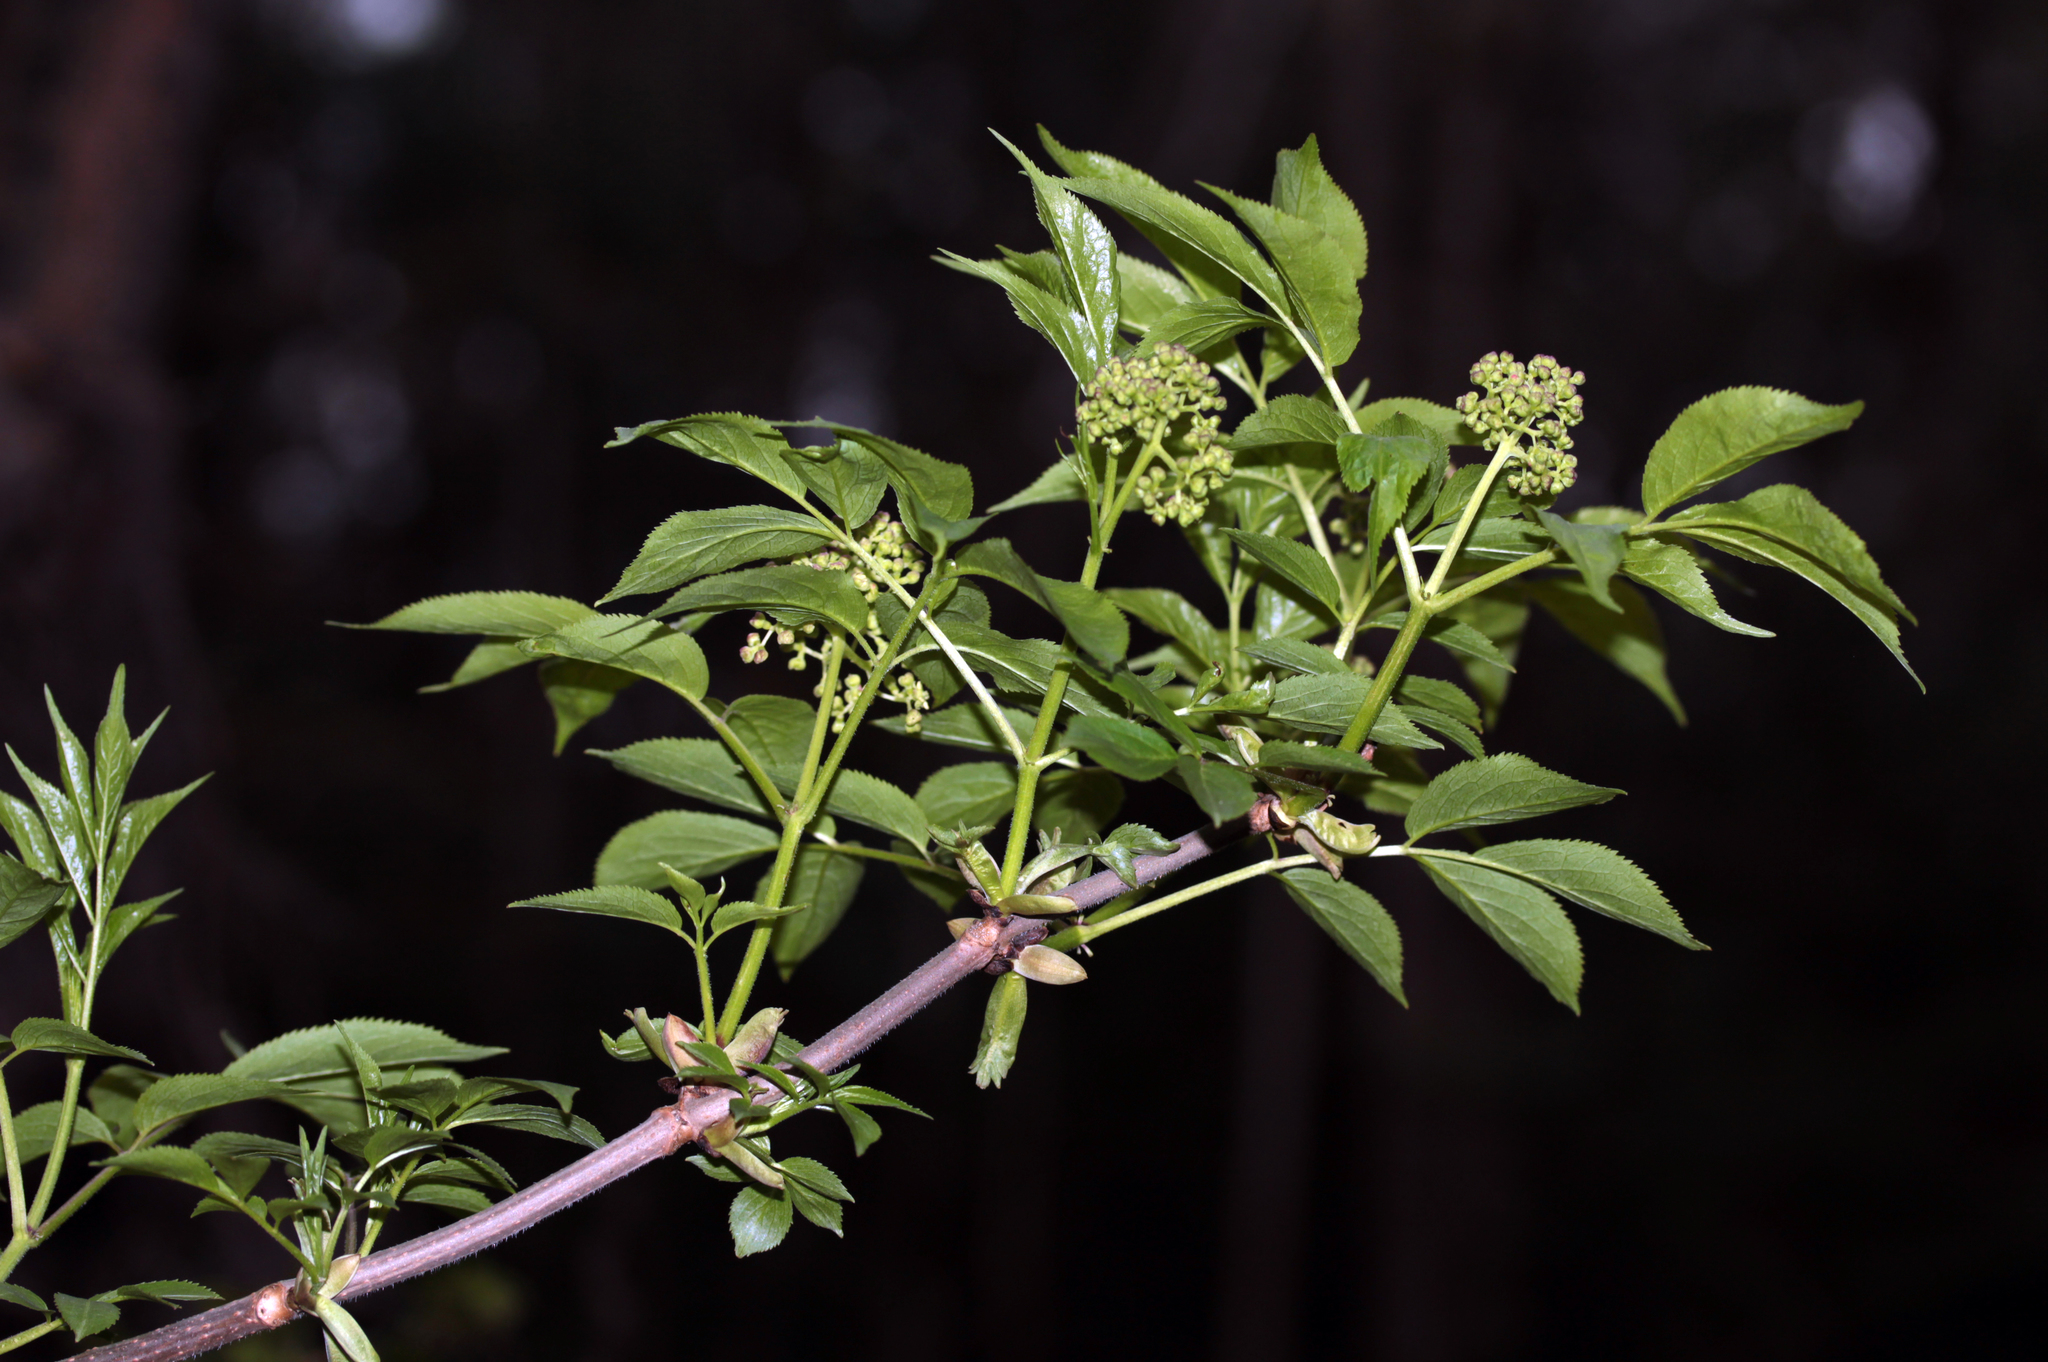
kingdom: Plantae
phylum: Tracheophyta
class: Magnoliopsida
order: Dipsacales
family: Viburnaceae
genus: Sambucus
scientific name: Sambucus racemosa
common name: Red-berried elder
